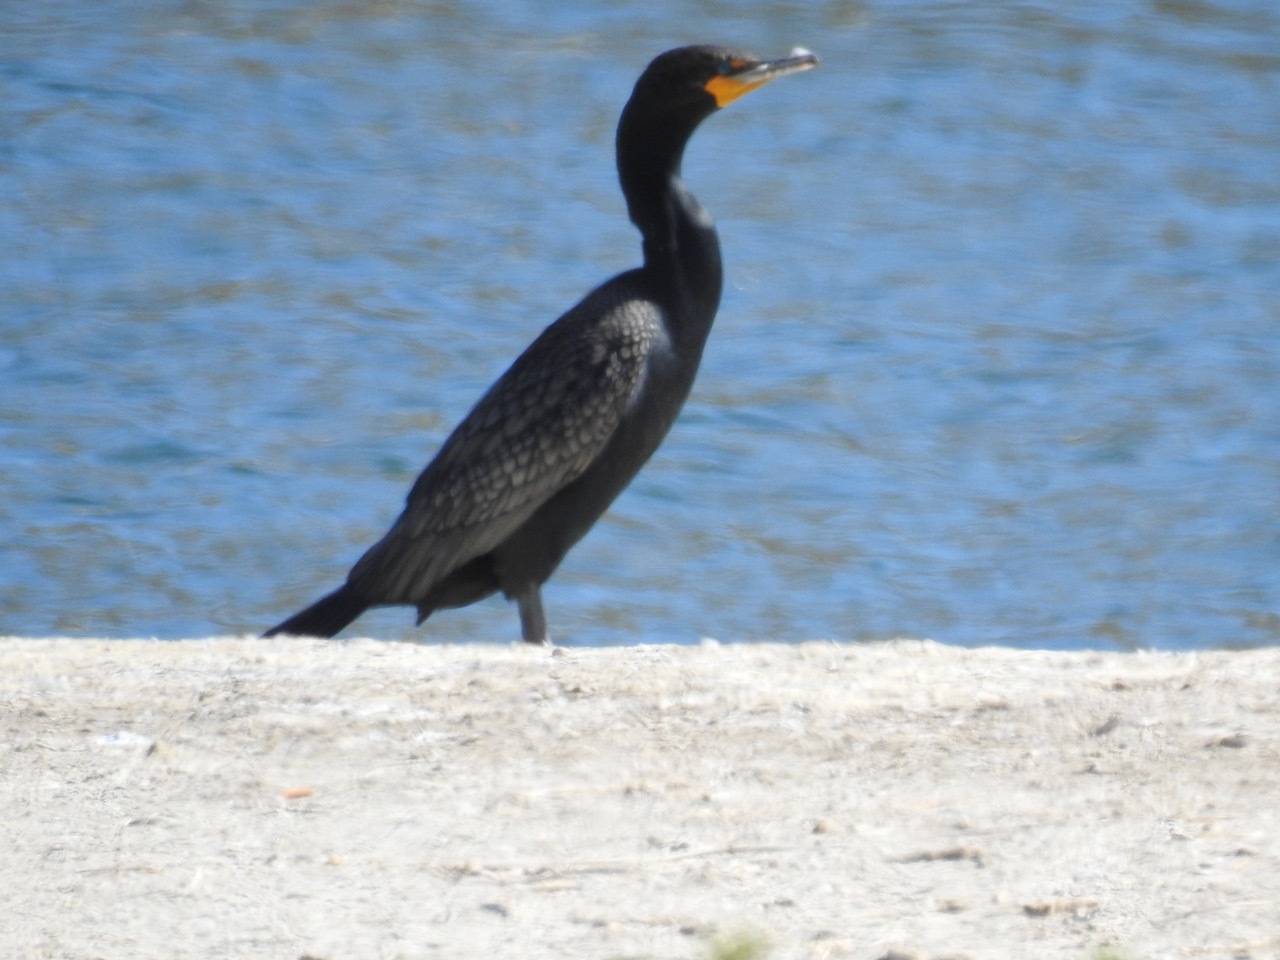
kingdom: Animalia
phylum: Chordata
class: Aves
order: Suliformes
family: Phalacrocoracidae
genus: Phalacrocorax
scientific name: Phalacrocorax auritus
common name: Double-crested cormorant
